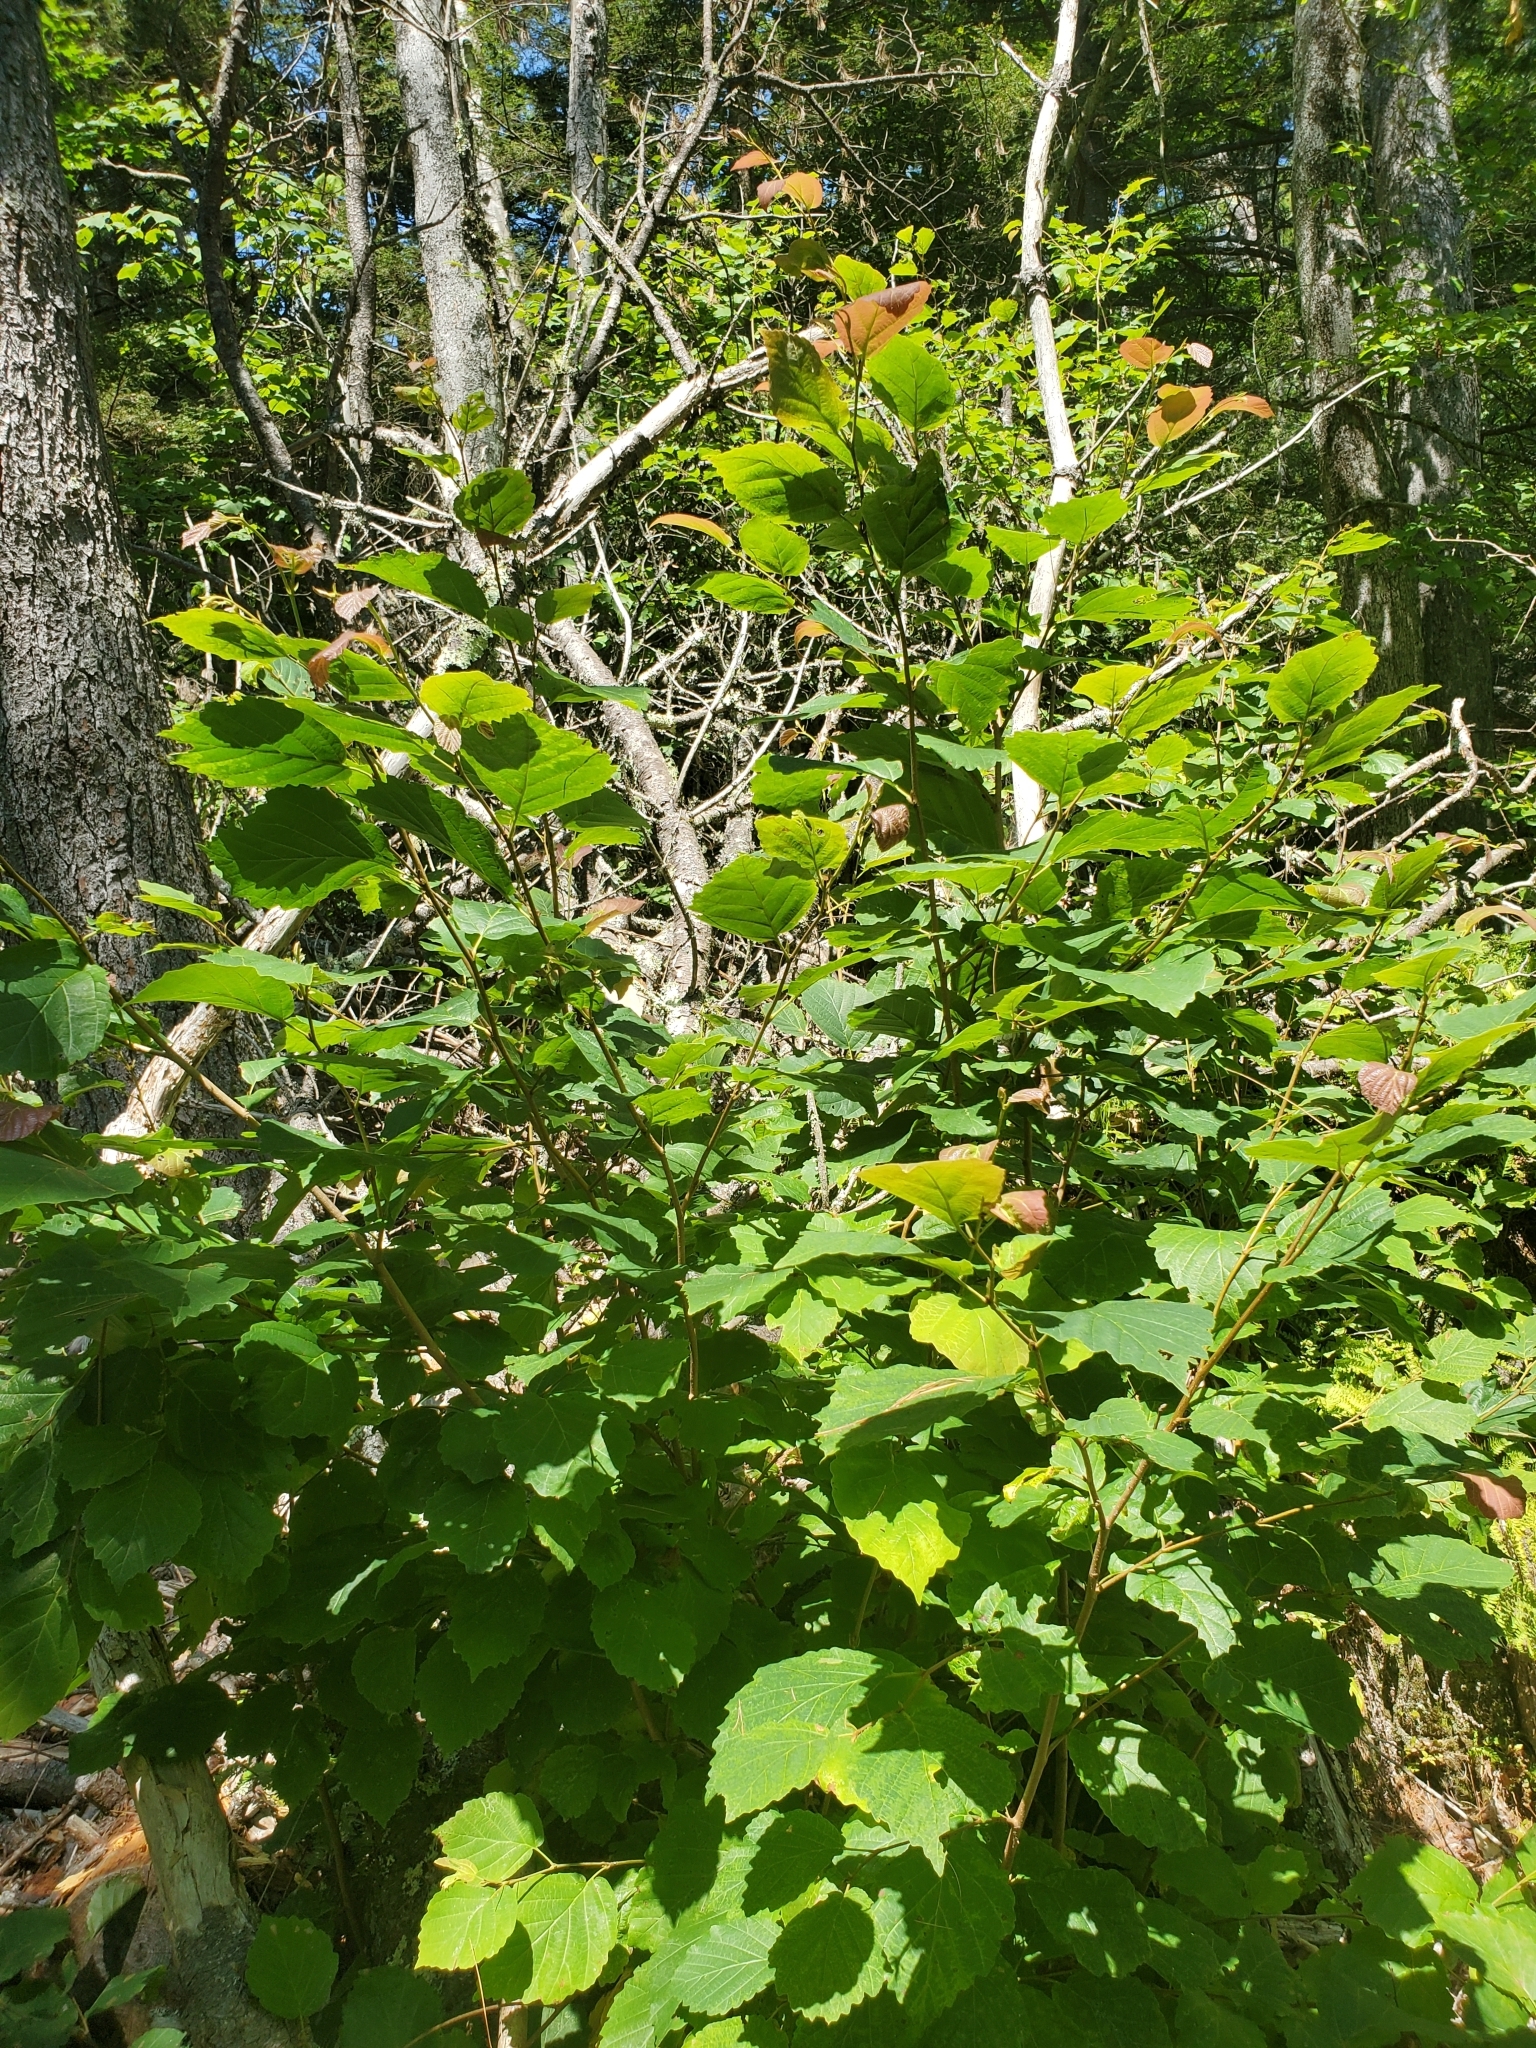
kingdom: Plantae
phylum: Tracheophyta
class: Magnoliopsida
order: Saxifragales
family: Hamamelidaceae
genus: Hamamelis
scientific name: Hamamelis virginiana
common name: Witch-hazel
